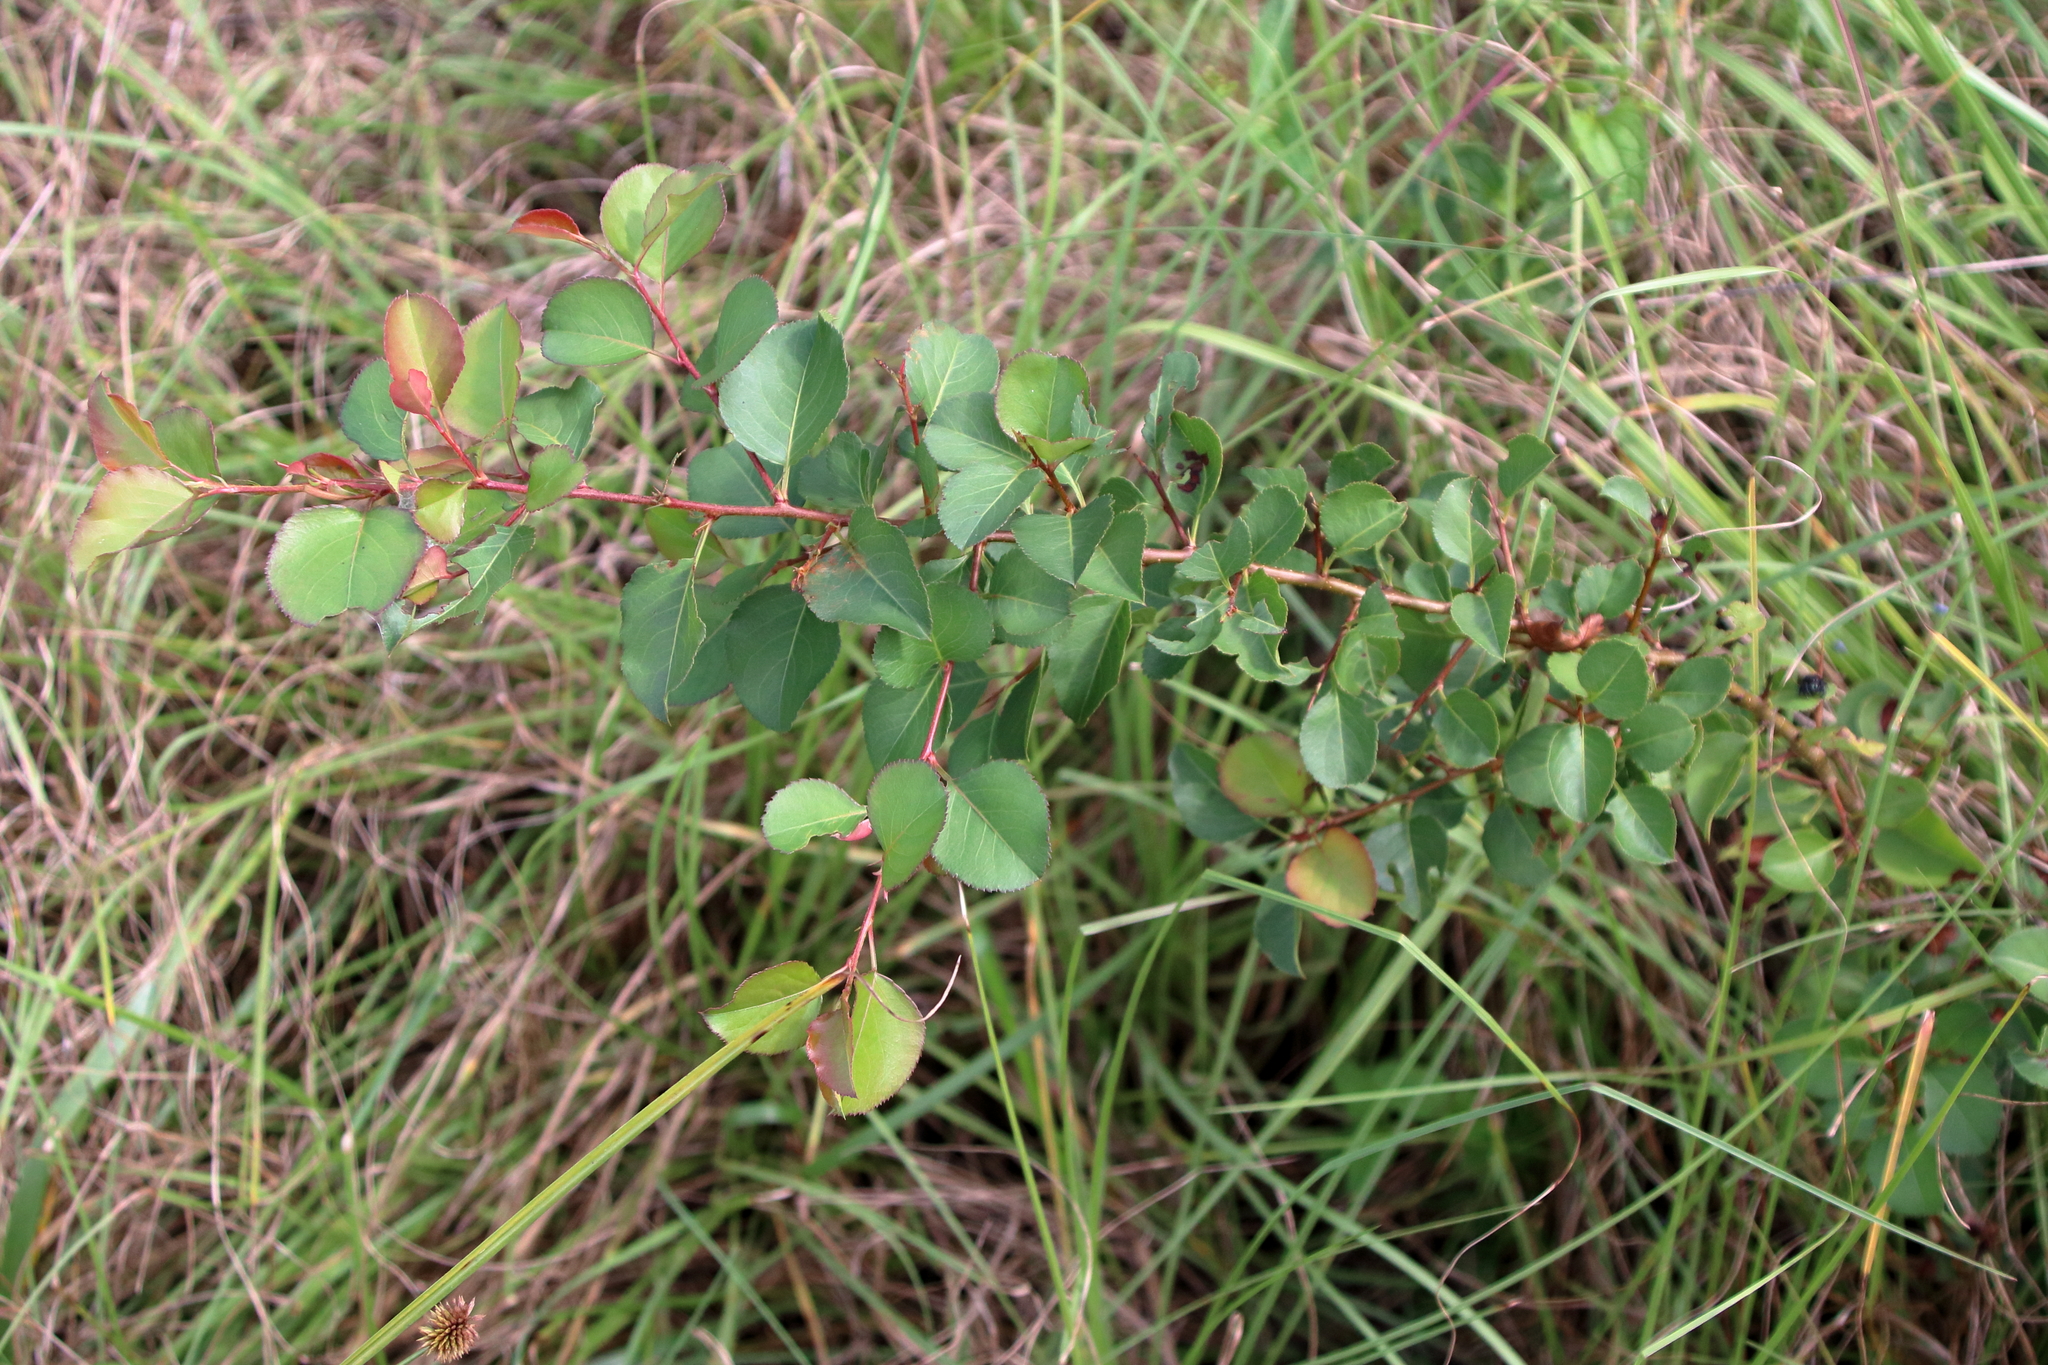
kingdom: Plantae
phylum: Tracheophyta
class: Magnoliopsida
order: Rosales
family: Rosaceae
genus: Pyrus
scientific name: Pyrus calleryana
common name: Callery pear
